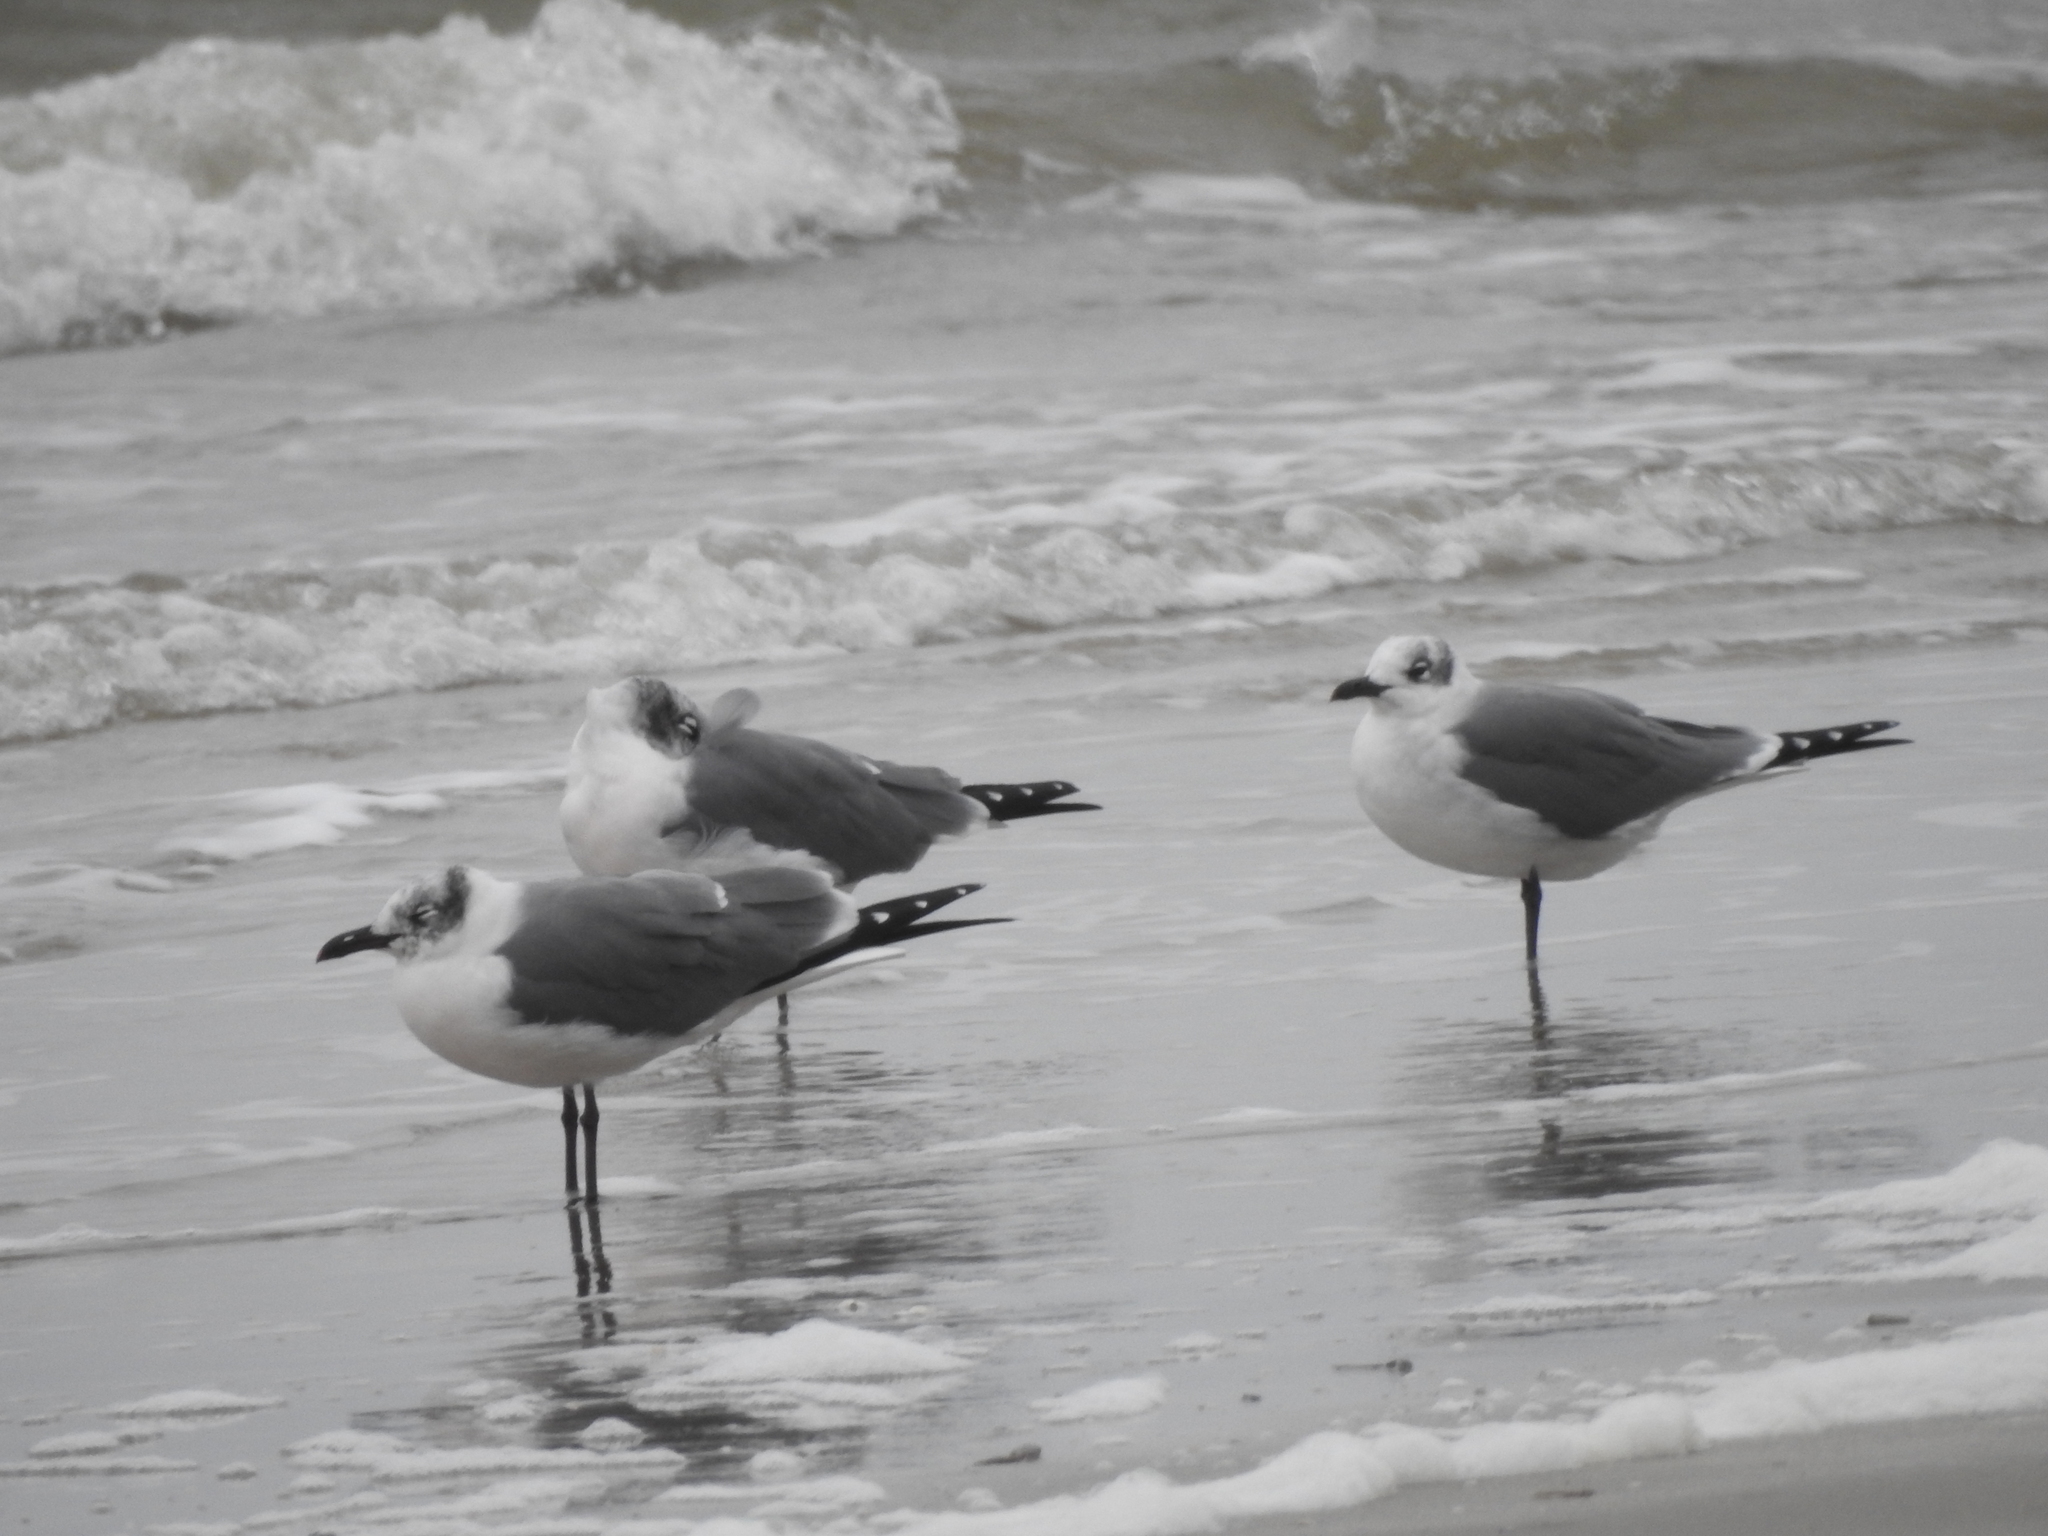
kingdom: Animalia
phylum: Chordata
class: Aves
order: Charadriiformes
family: Laridae
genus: Leucophaeus
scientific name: Leucophaeus atricilla
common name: Laughing gull
